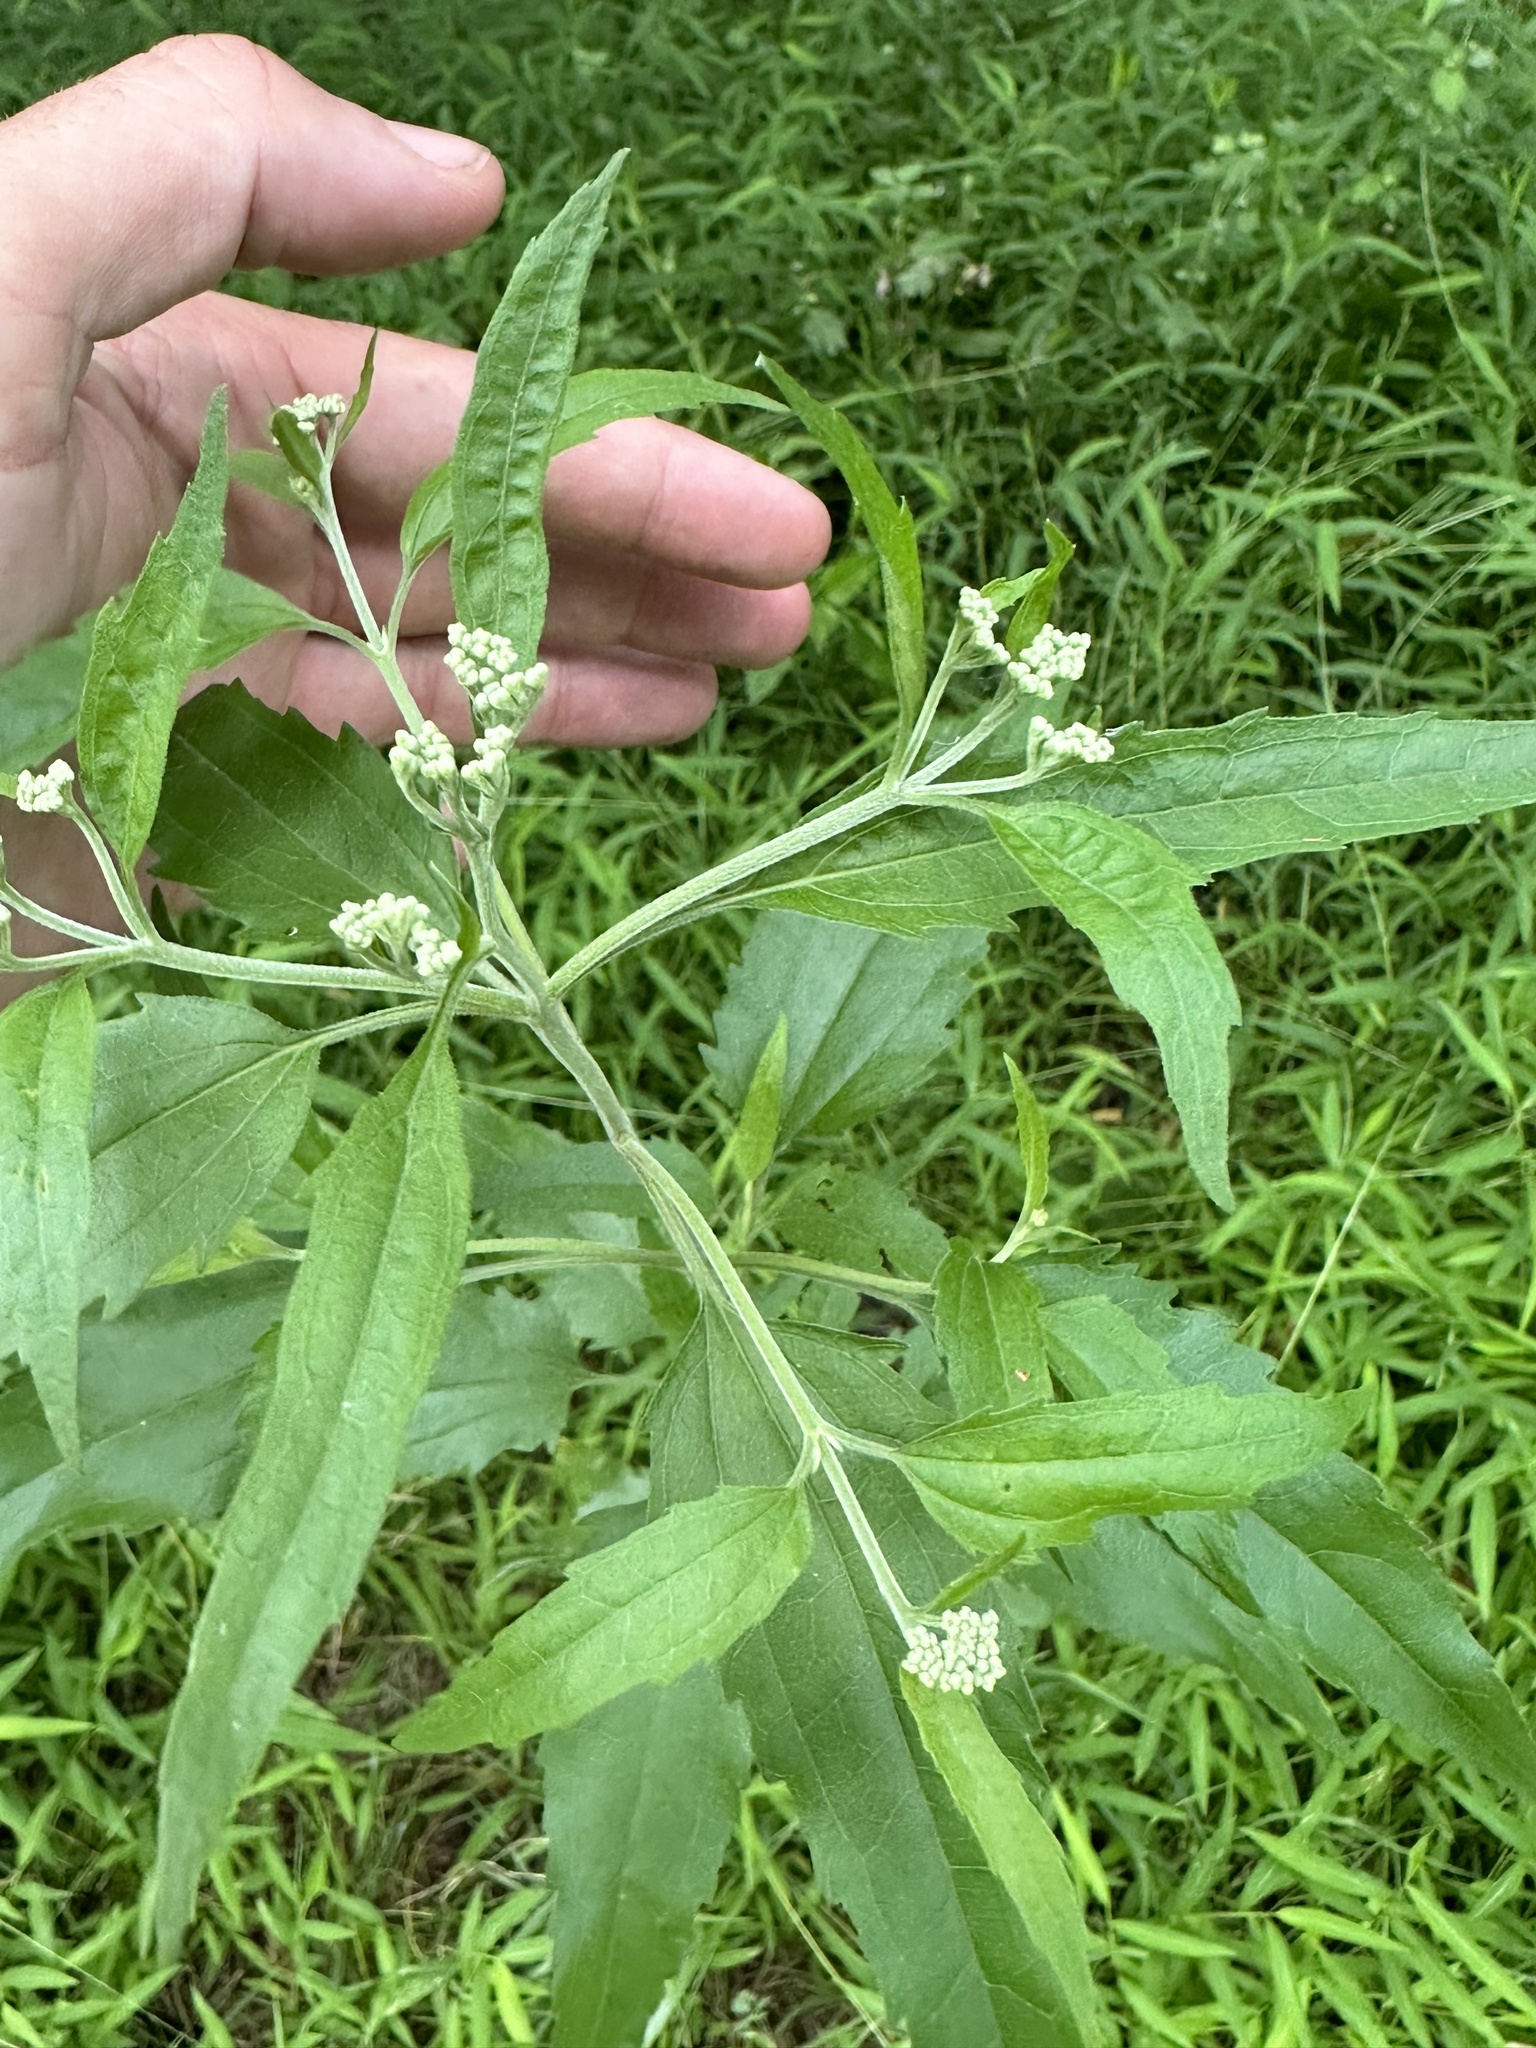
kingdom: Plantae
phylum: Tracheophyta
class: Magnoliopsida
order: Asterales
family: Asteraceae
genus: Eupatorium
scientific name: Eupatorium serotinum
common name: Late boneset
